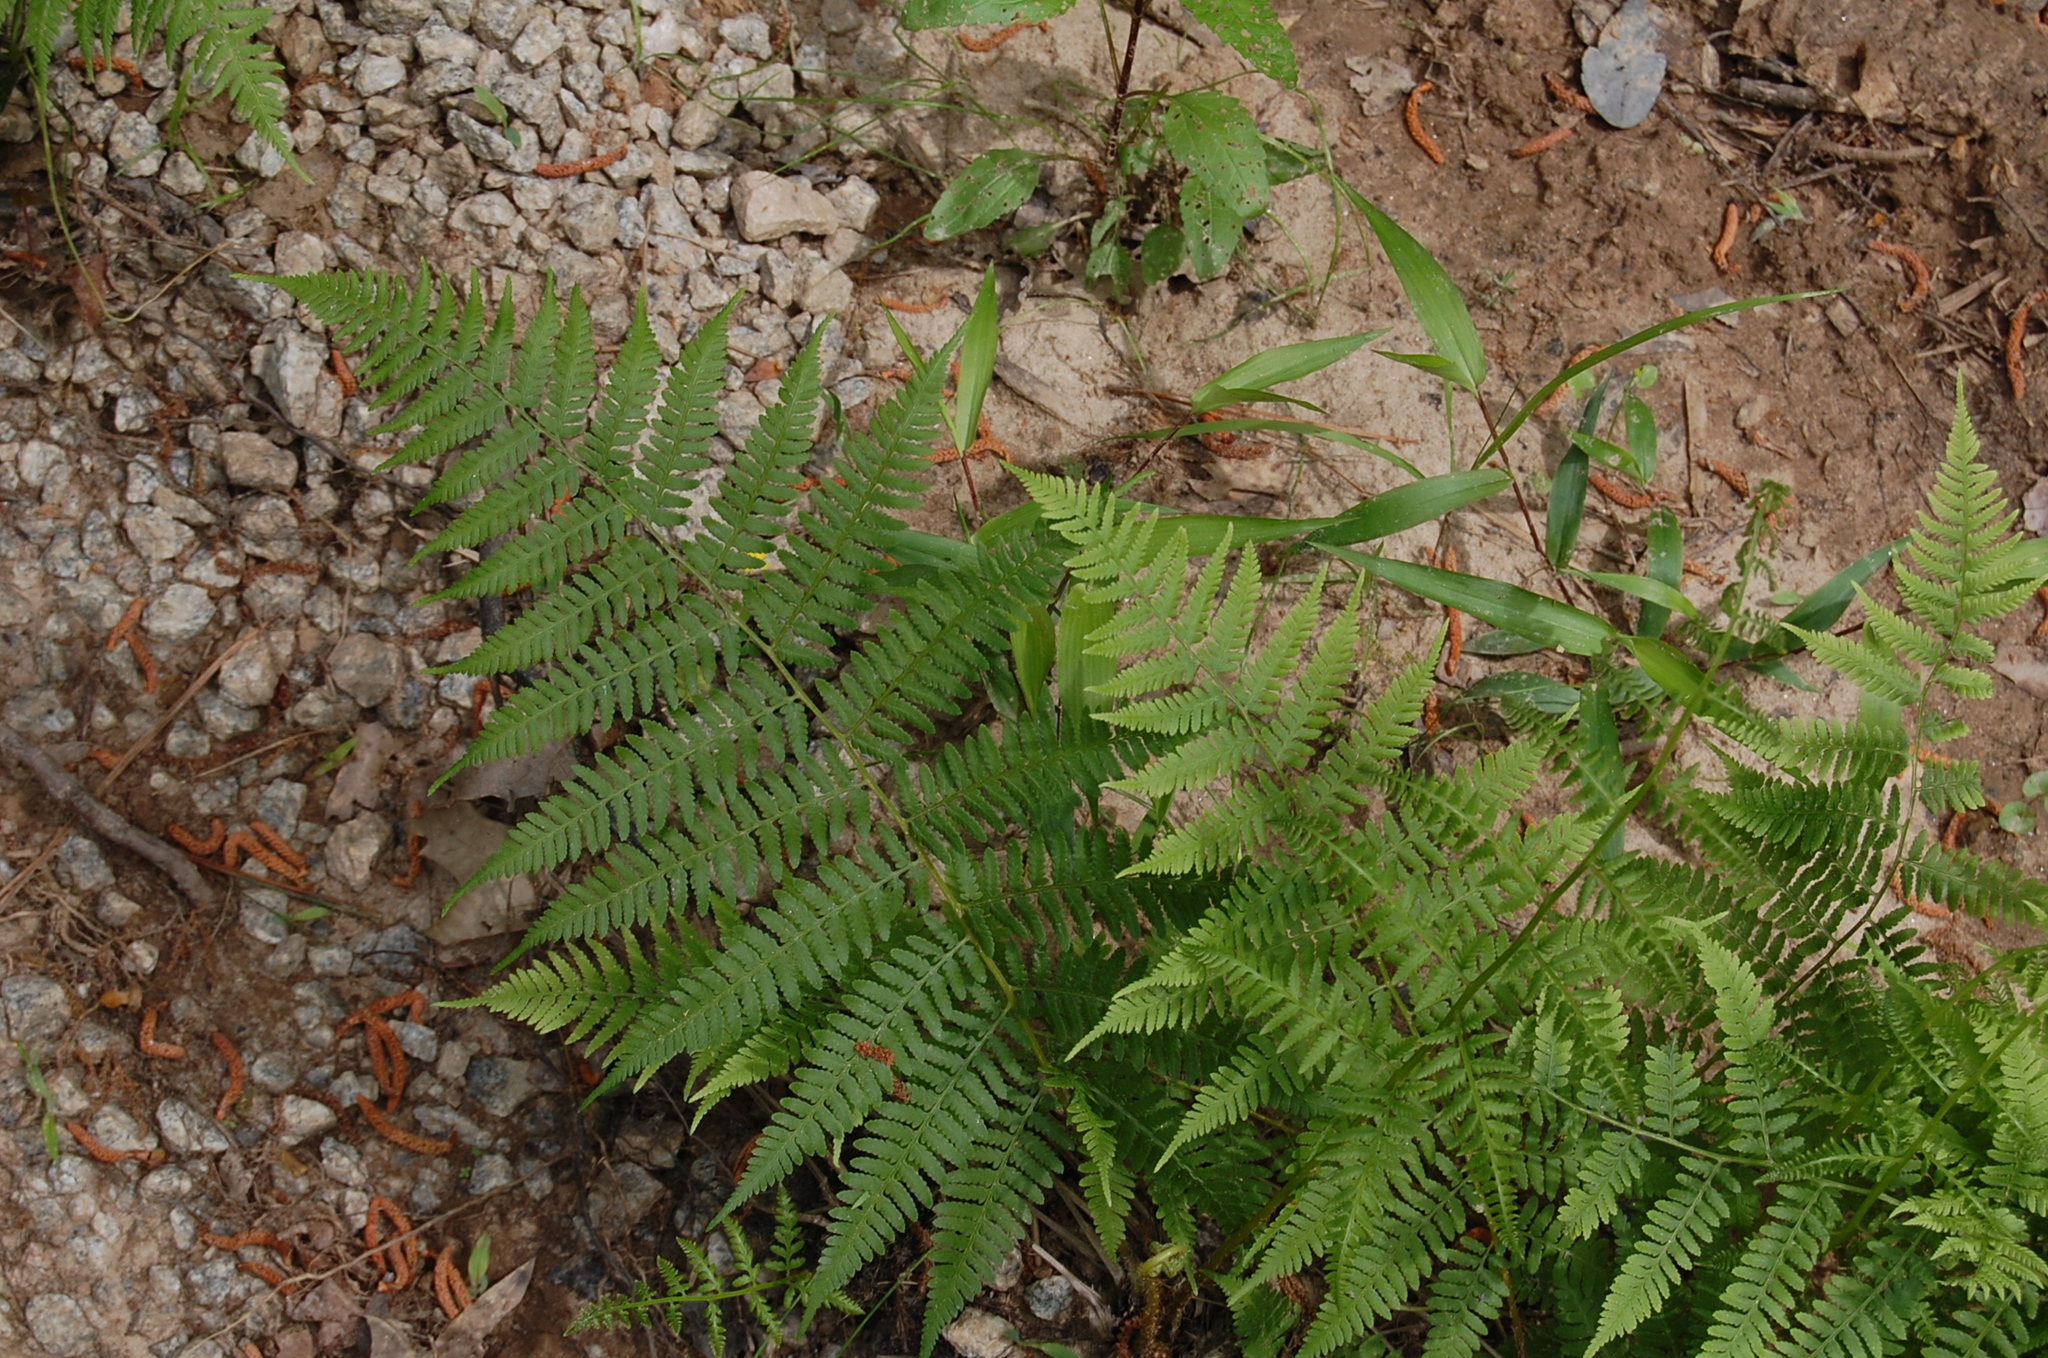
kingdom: Plantae
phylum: Tracheophyta
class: Polypodiopsida
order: Polypodiales
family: Athyriaceae
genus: Athyrium
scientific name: Athyrium asplenioides
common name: Southern lady fern
